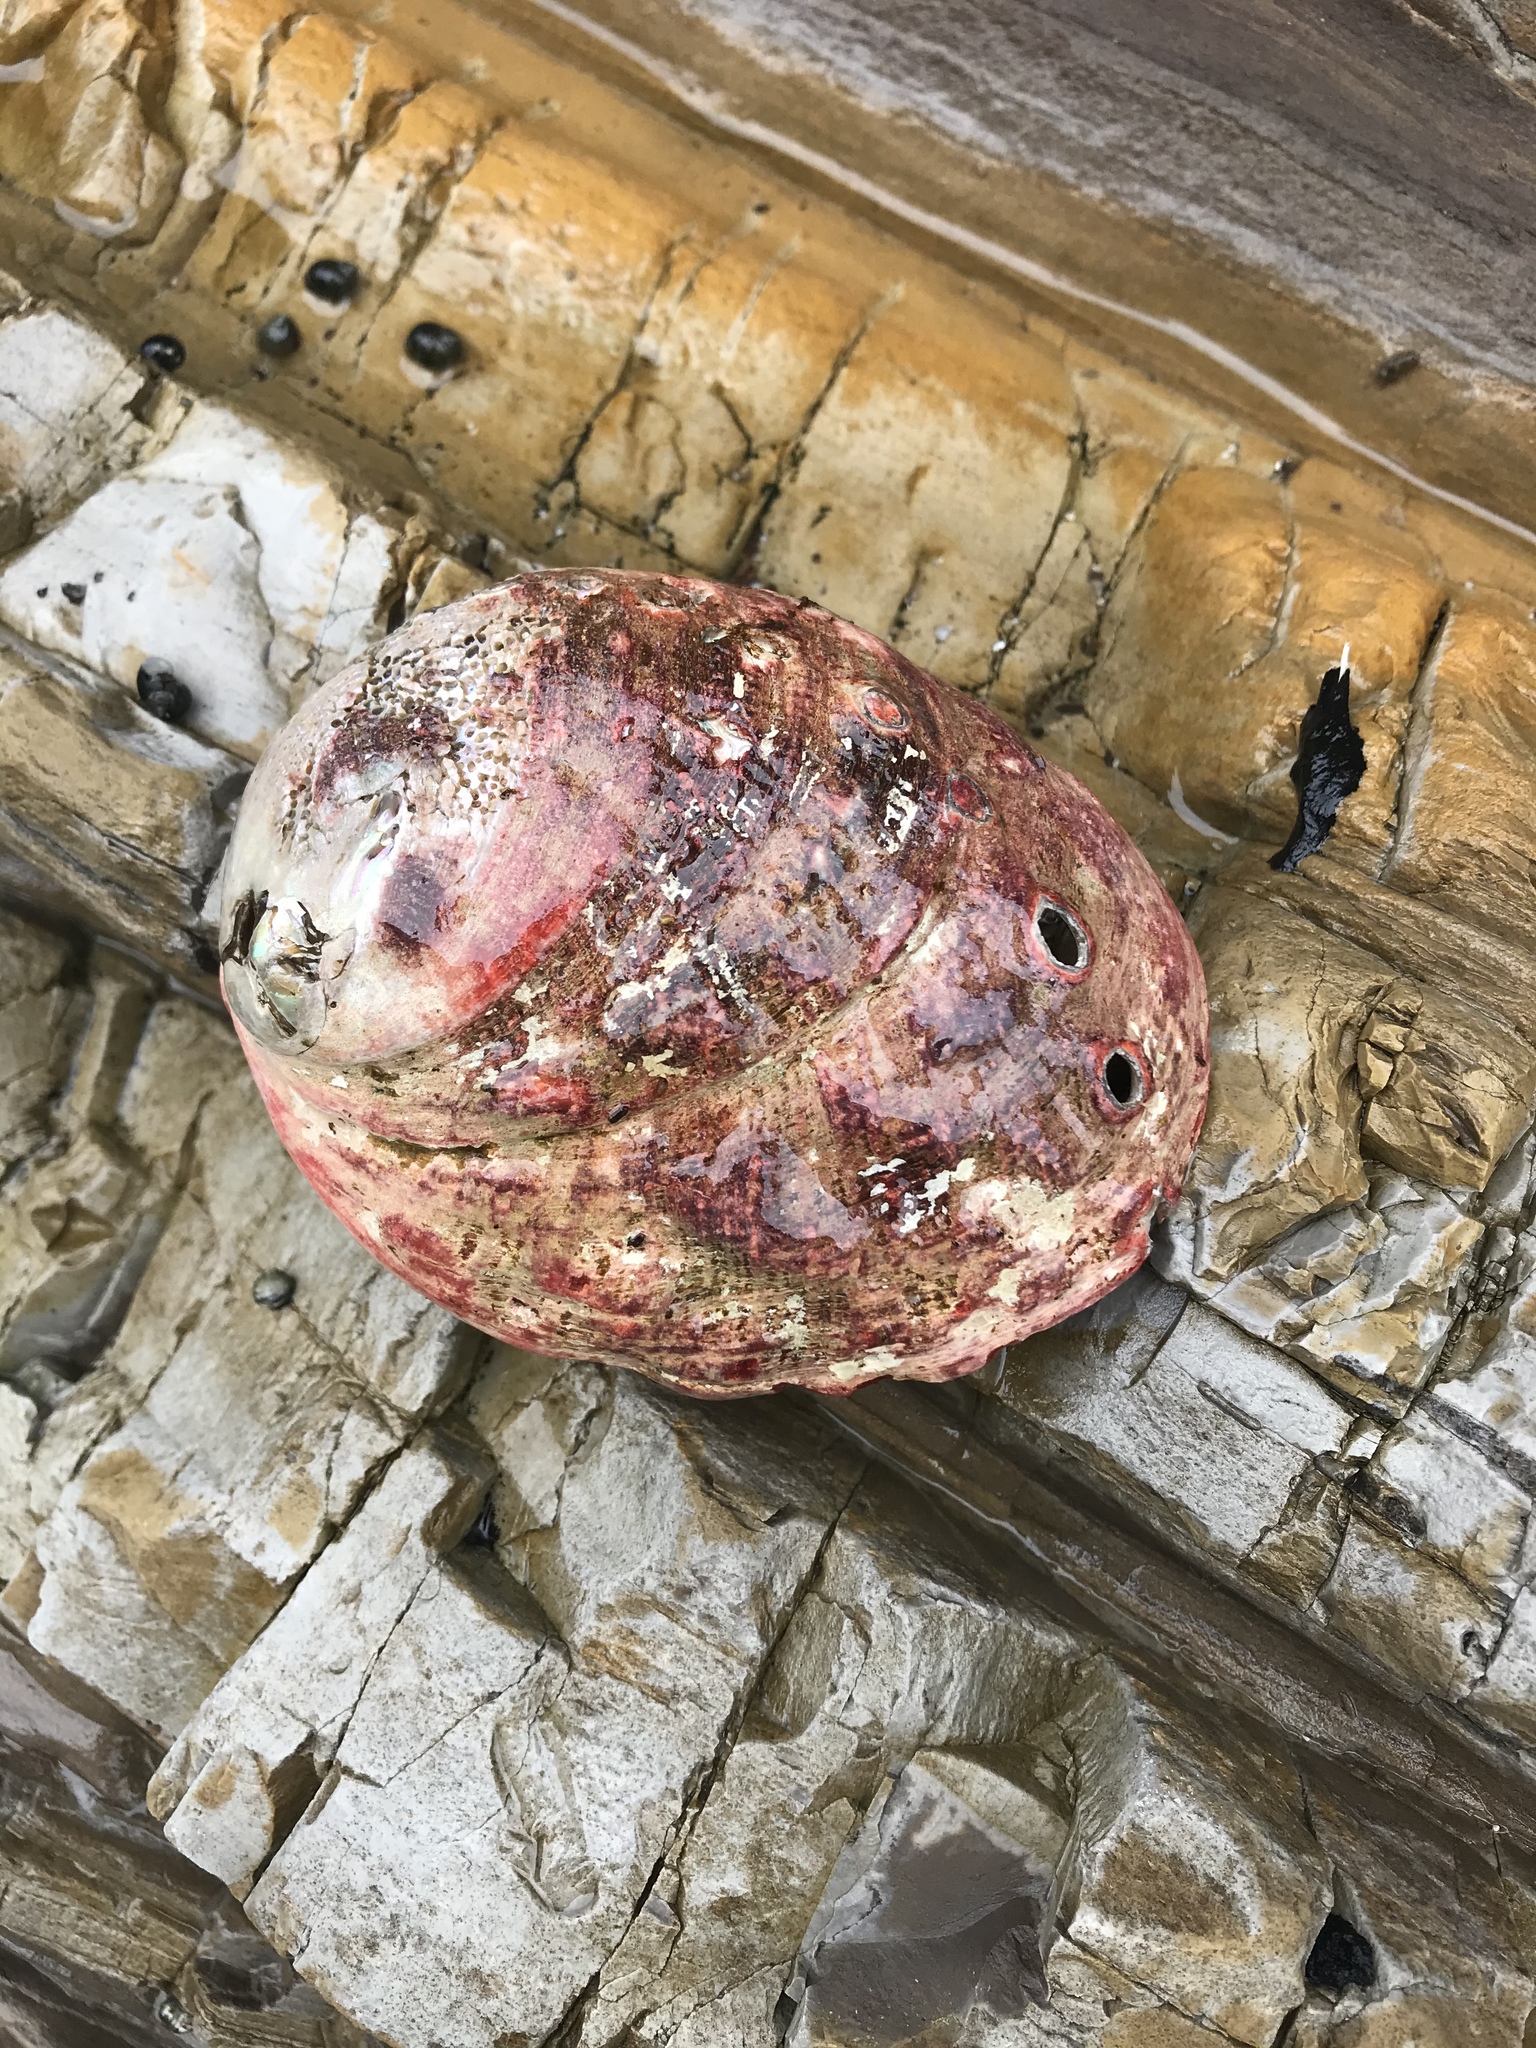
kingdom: Animalia
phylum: Mollusca
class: Gastropoda
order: Lepetellida
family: Haliotidae
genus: Haliotis
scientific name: Haliotis rufescens
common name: Red abalone
